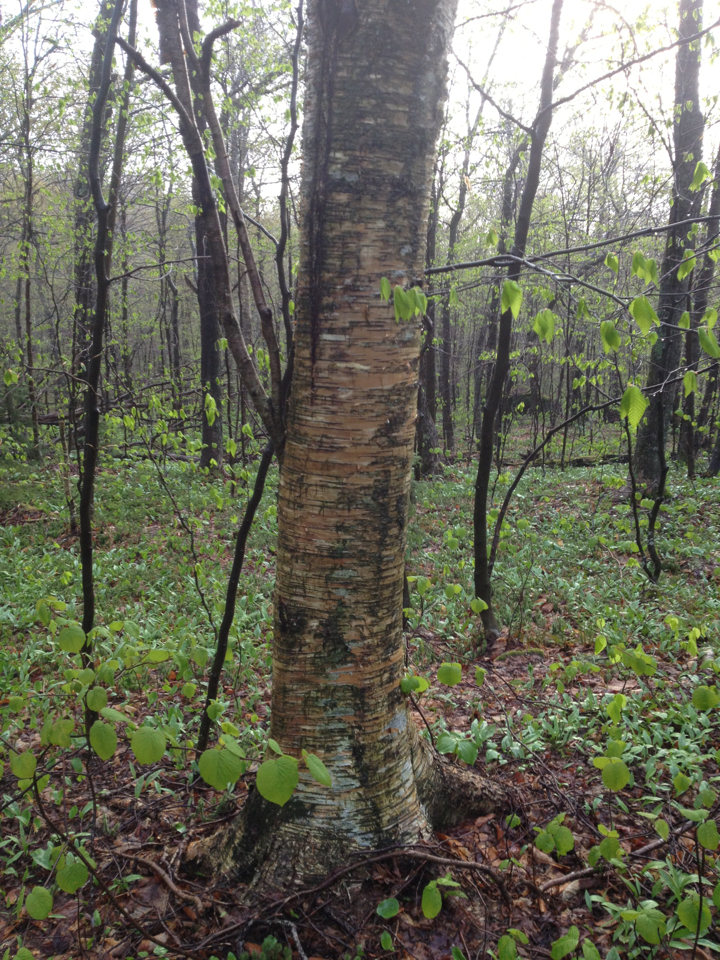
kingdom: Plantae
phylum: Tracheophyta
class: Magnoliopsida
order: Fagales
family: Betulaceae
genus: Betula
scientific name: Betula alleghaniensis
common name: Yellow birch
